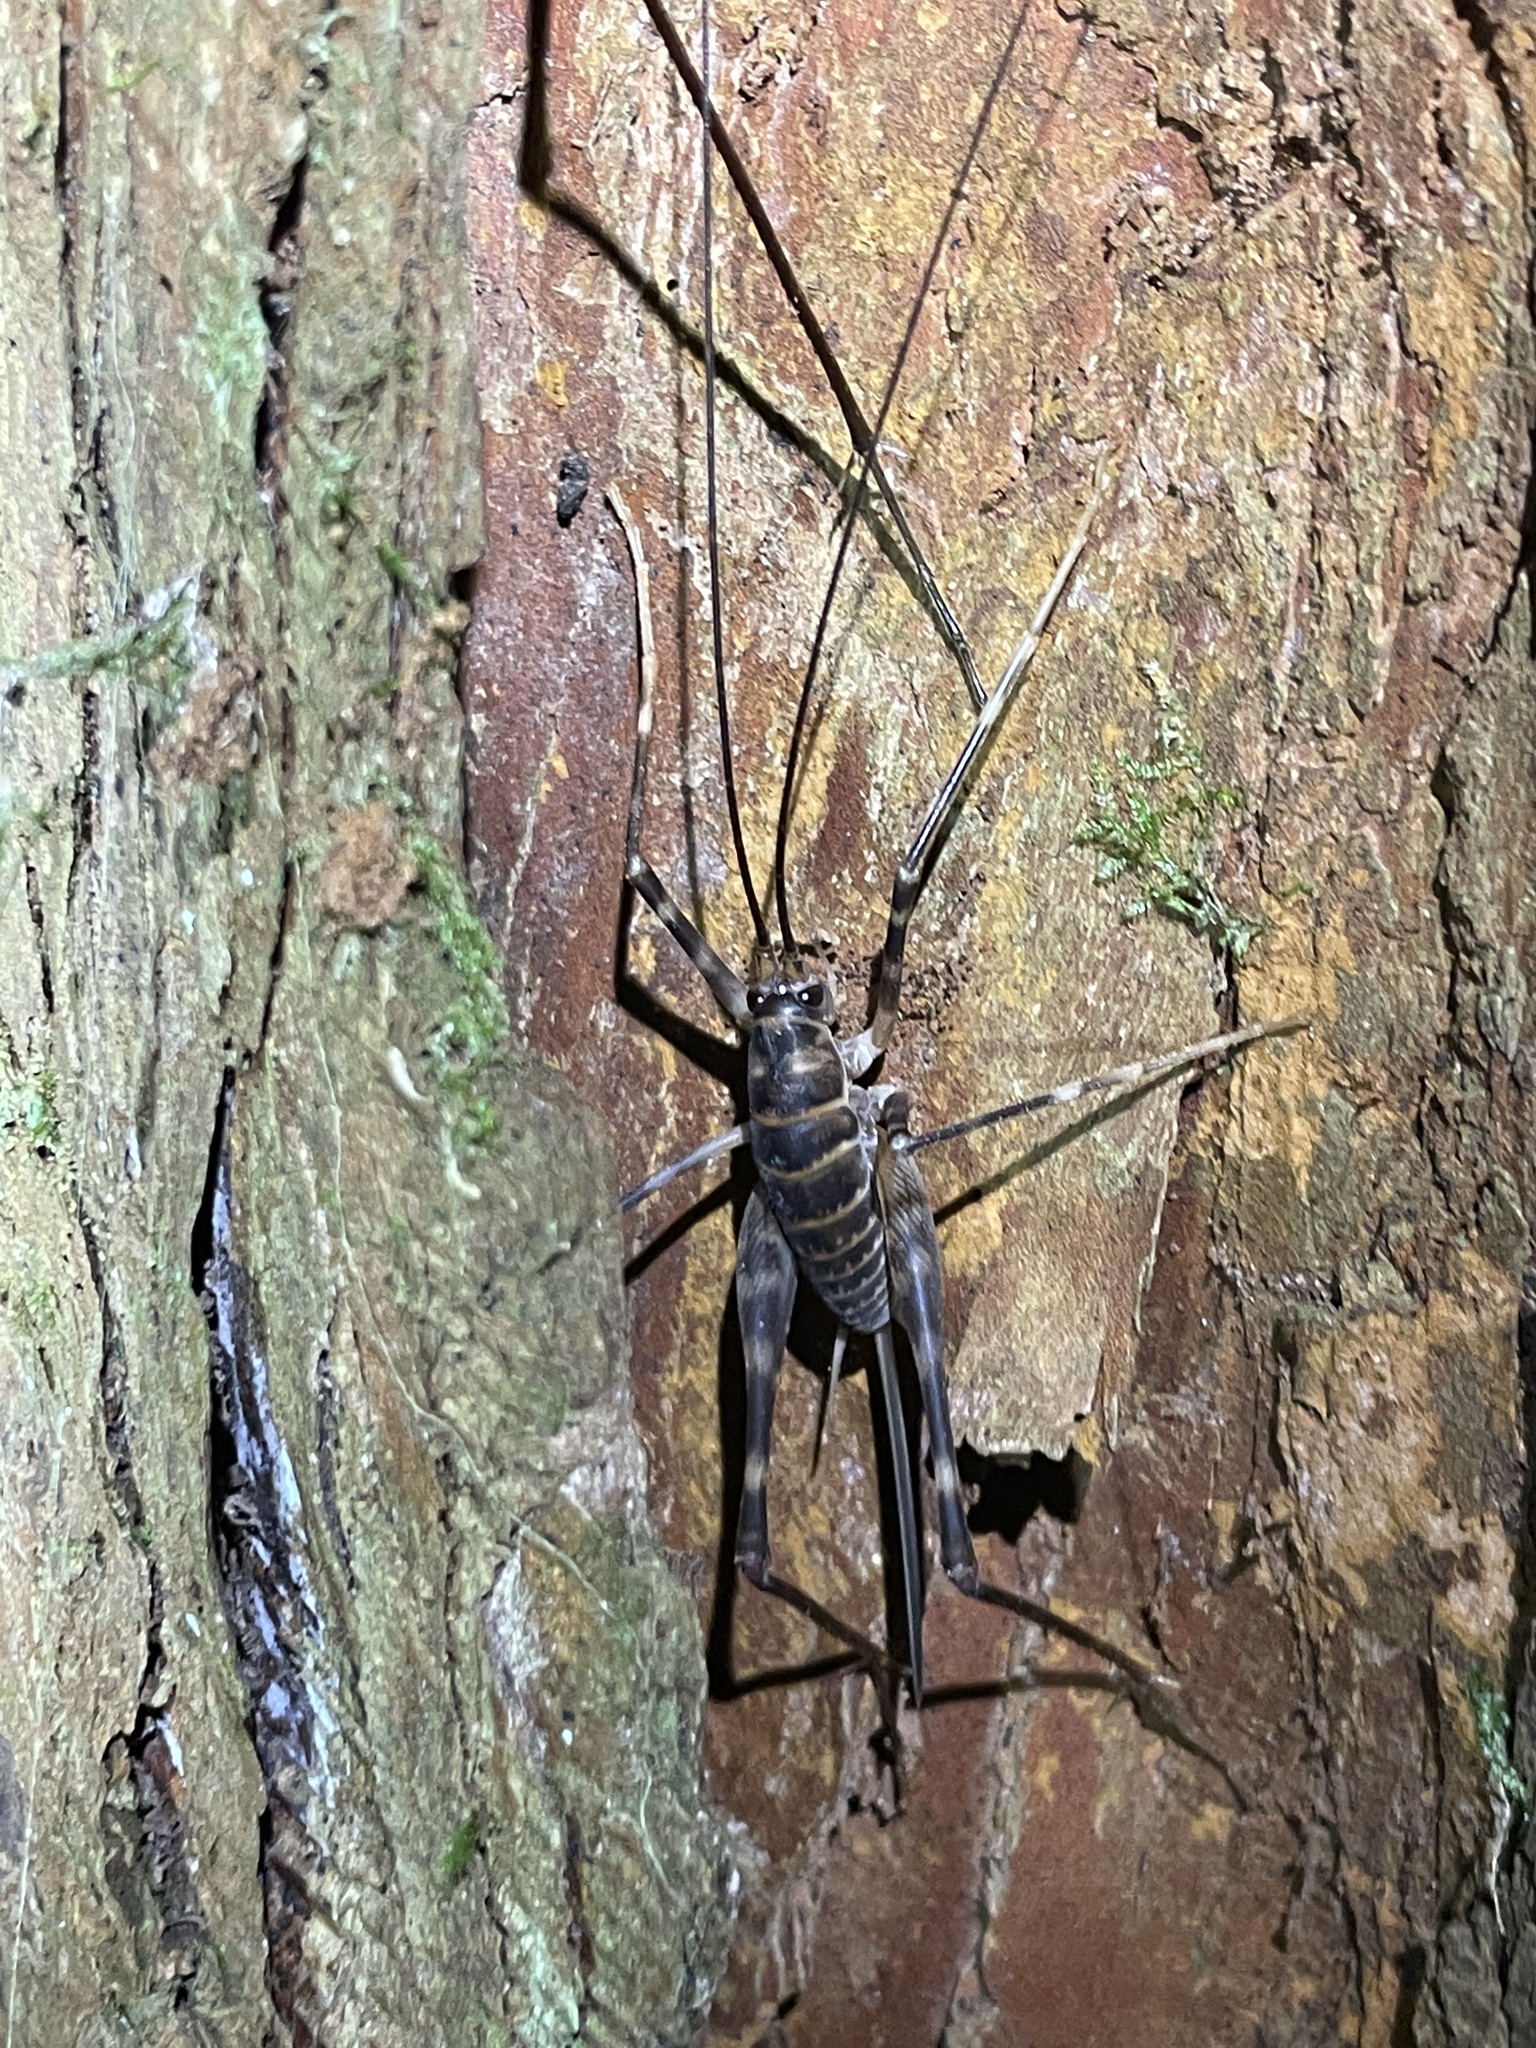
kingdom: Animalia
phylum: Arthropoda
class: Insecta
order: Orthoptera
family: Rhaphidophoridae
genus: Pachyrhamma
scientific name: Pachyrhamma acanthocera
